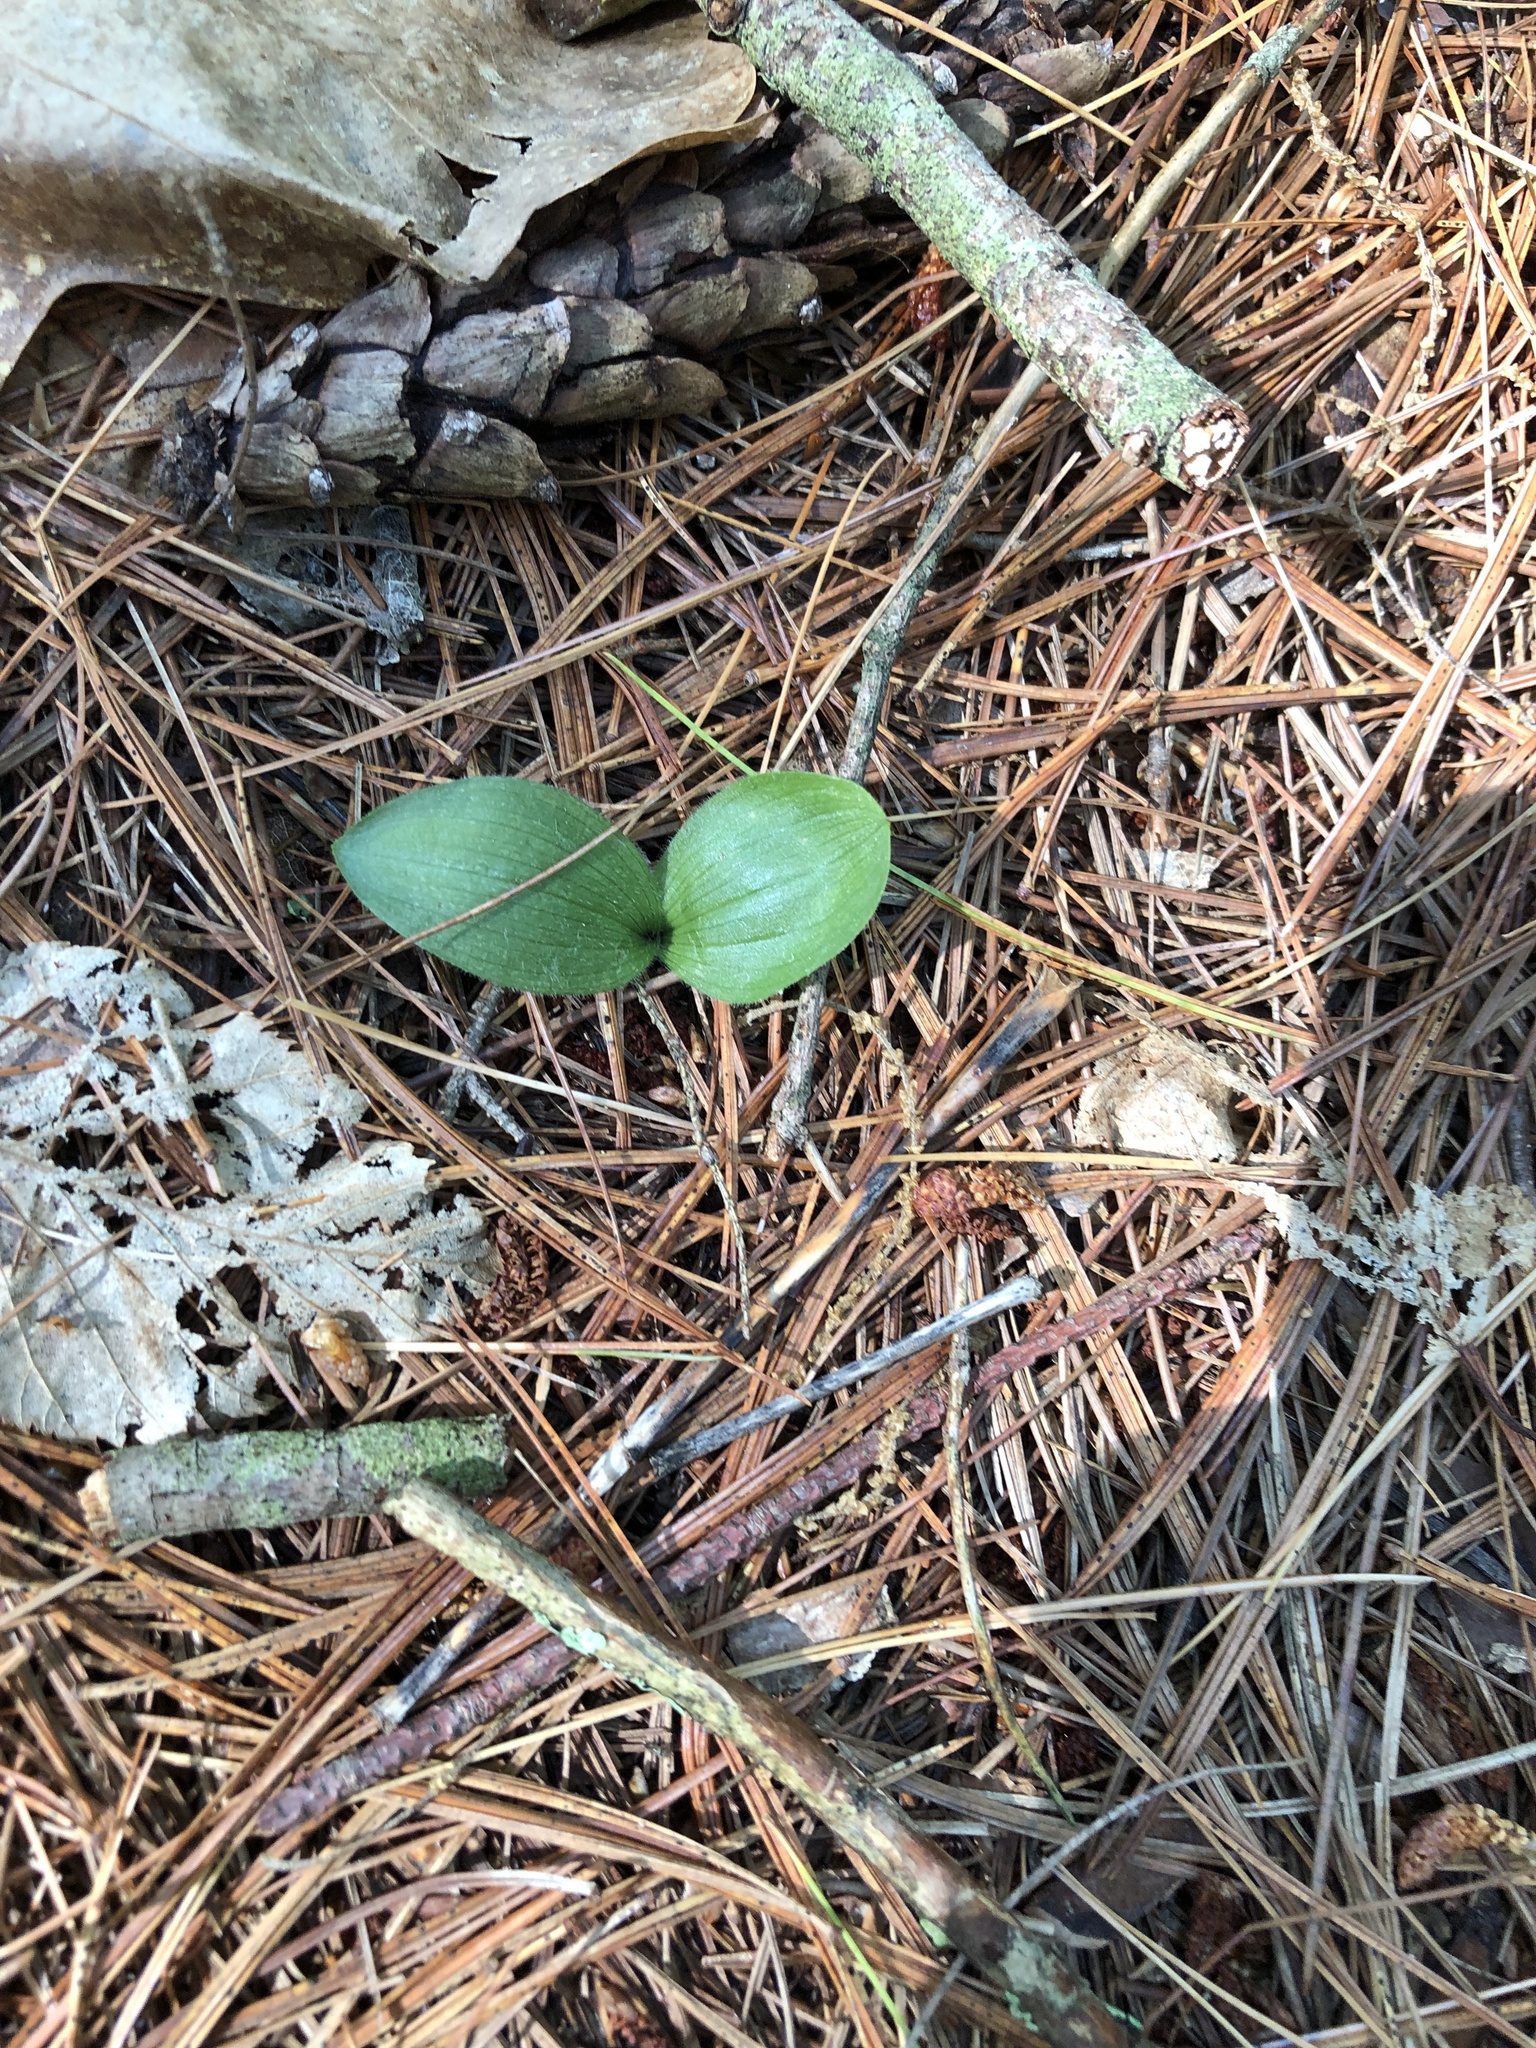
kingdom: Plantae
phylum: Tracheophyta
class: Liliopsida
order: Asparagales
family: Orchidaceae
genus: Cypripedium
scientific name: Cypripedium acaule
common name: Pink lady's-slipper
